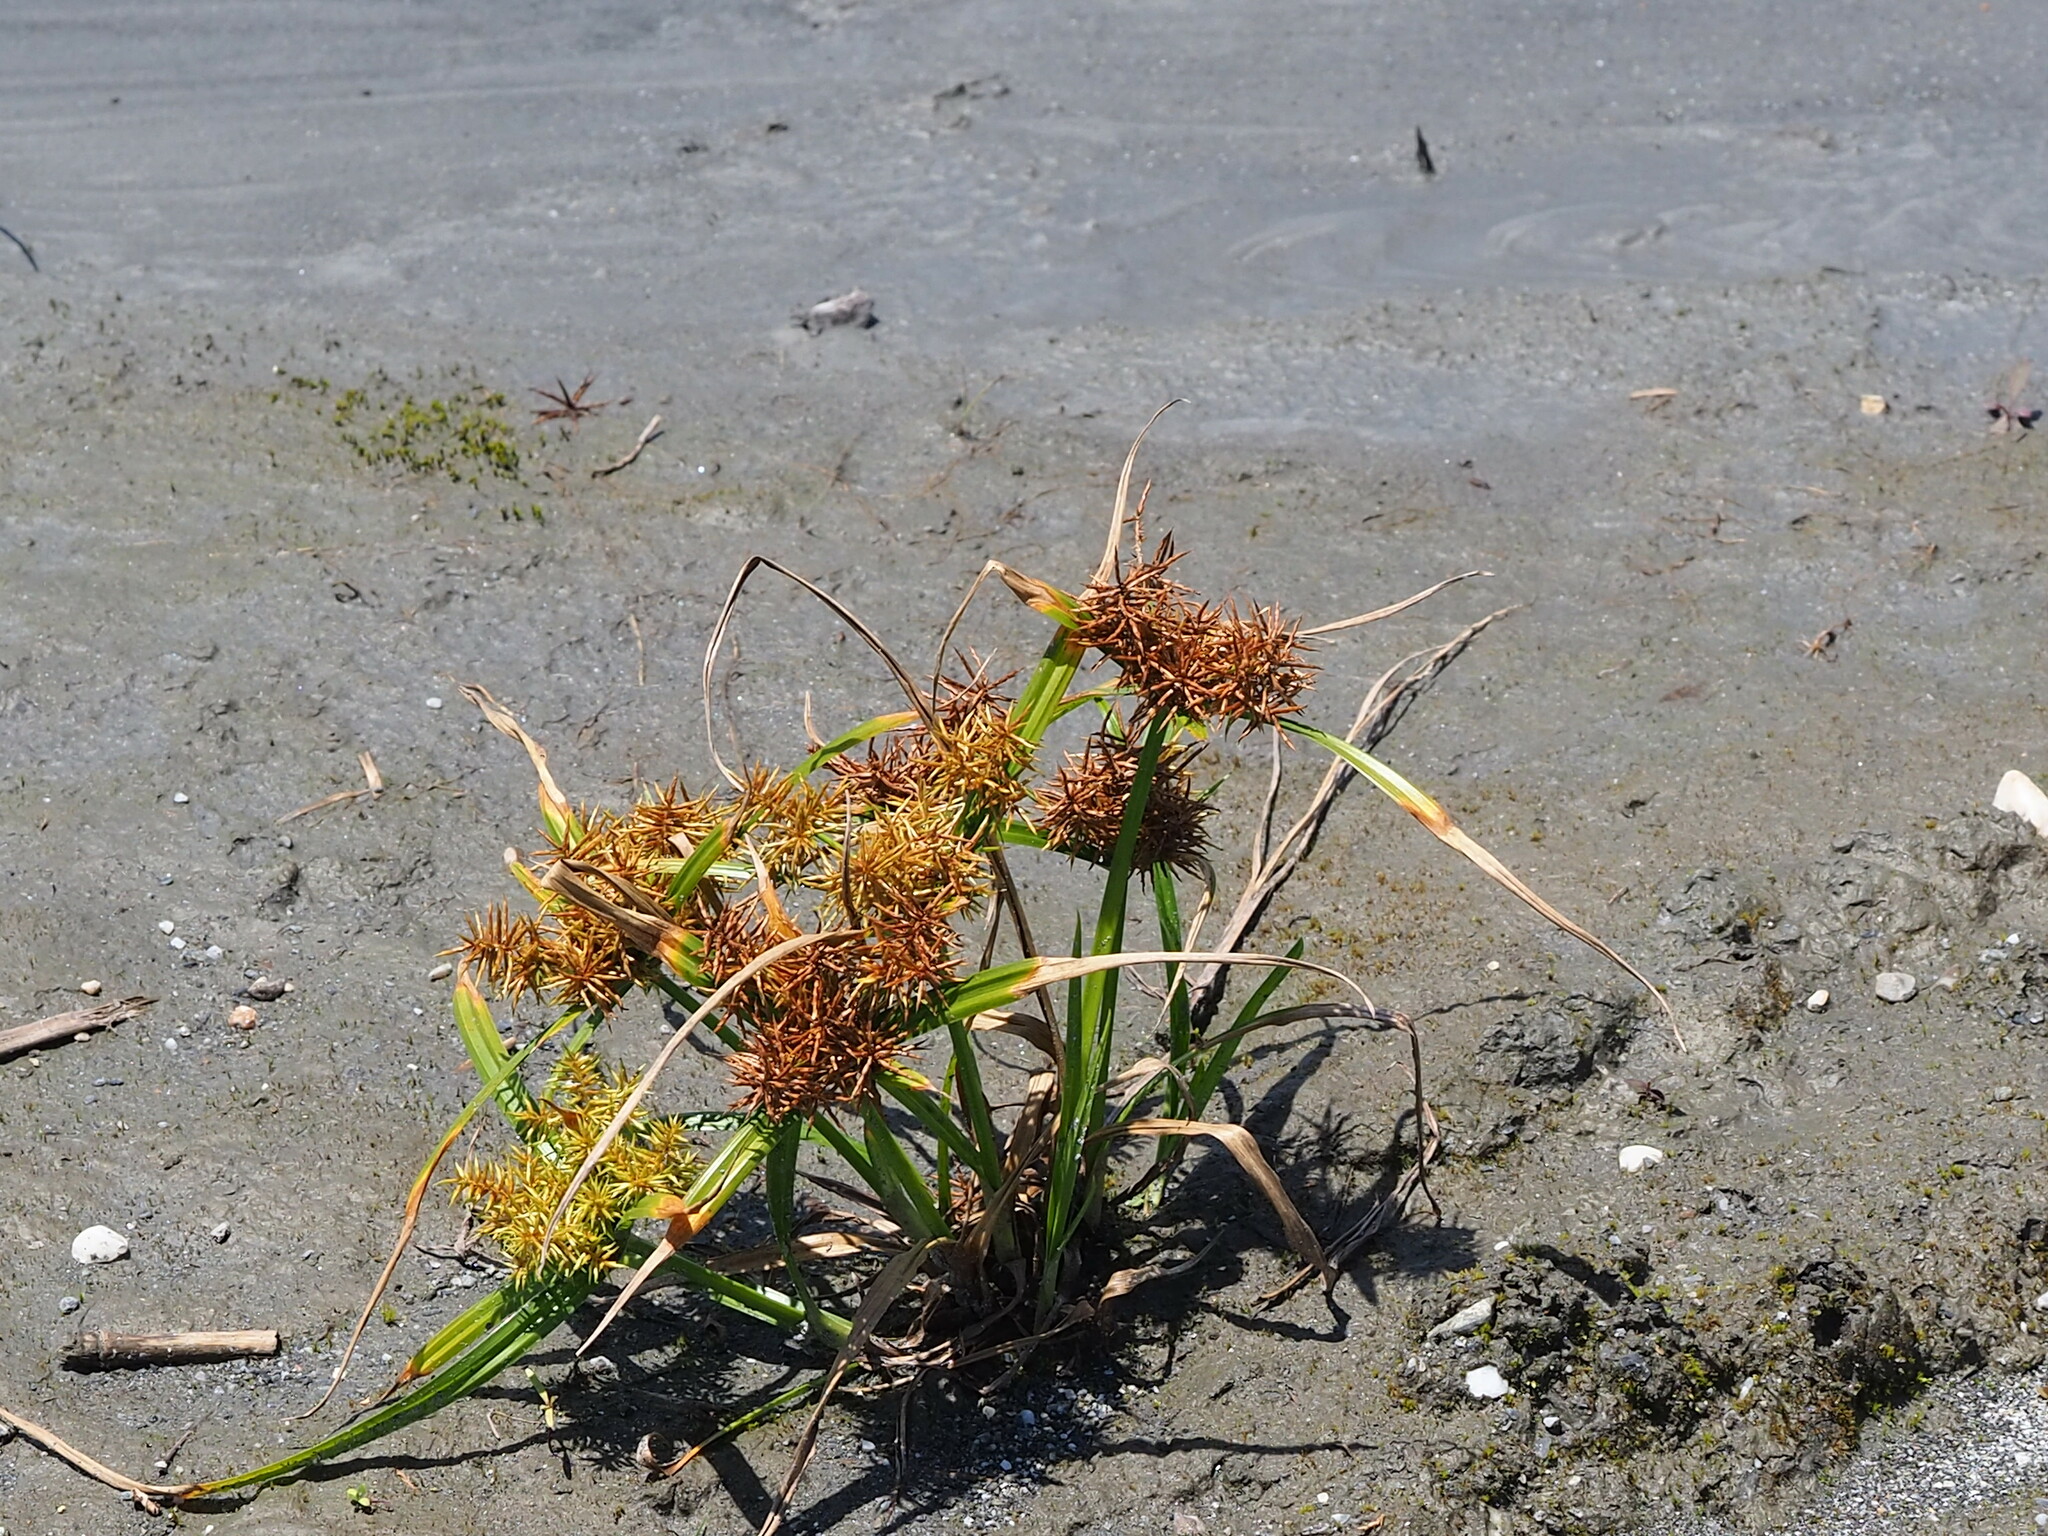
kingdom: Plantae
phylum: Tracheophyta
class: Liliopsida
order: Poales
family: Cyperaceae
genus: Cyperus
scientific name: Cyperus odoratus
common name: Fragrant flatsedge
